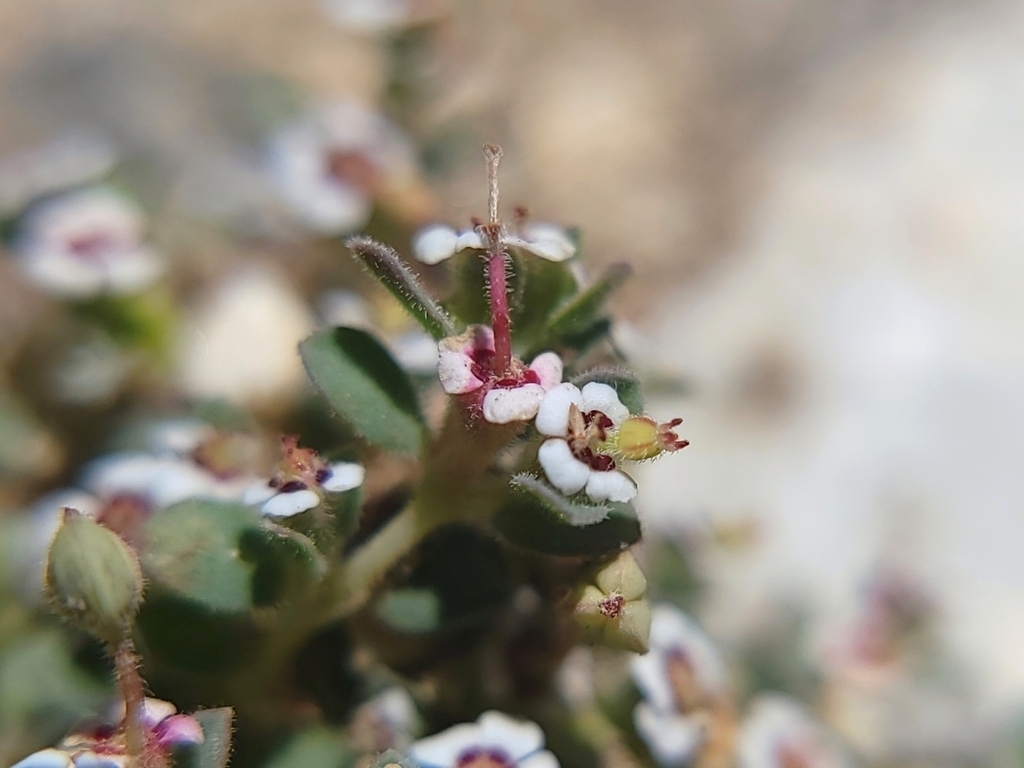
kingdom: Plantae
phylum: Tracheophyta
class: Magnoliopsida
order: Malpighiales
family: Euphorbiaceae
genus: Euphorbia
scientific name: Euphorbia polycarpa
